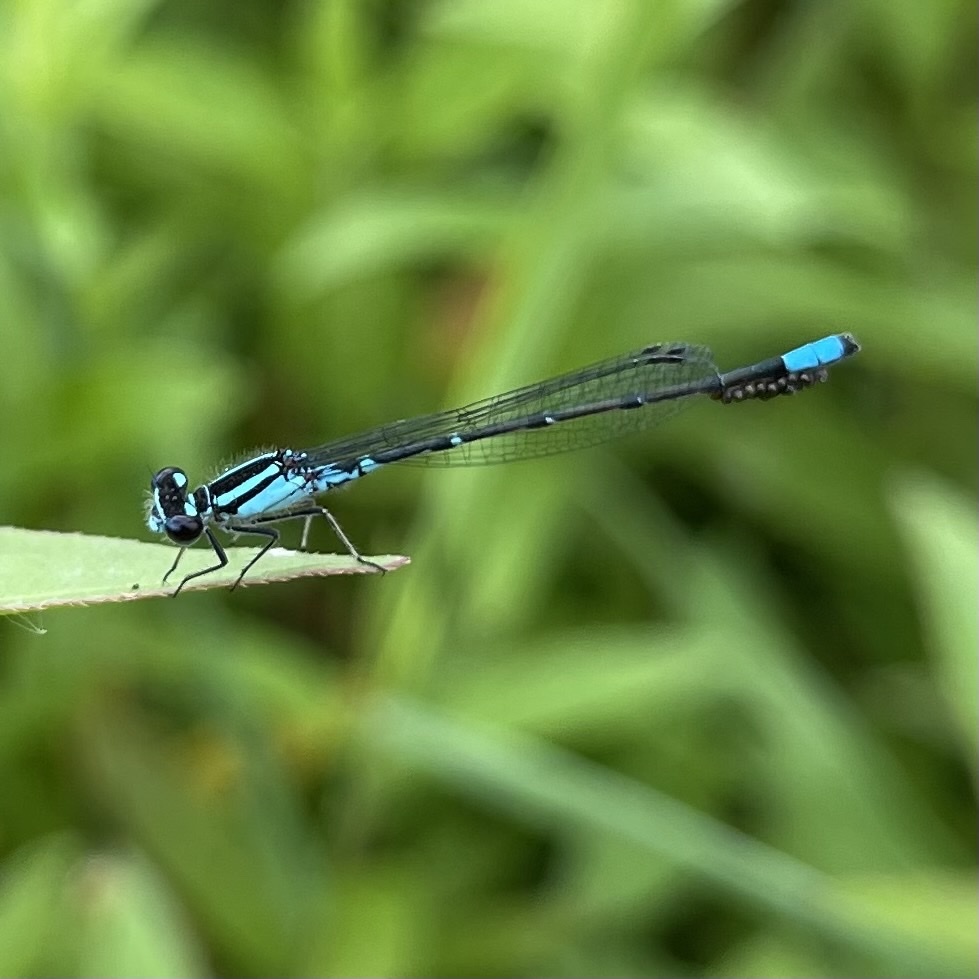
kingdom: Animalia
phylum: Arthropoda
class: Insecta
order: Odonata
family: Coenagrionidae
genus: Enallagma
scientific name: Enallagma geminatum
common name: Skimming bluet
